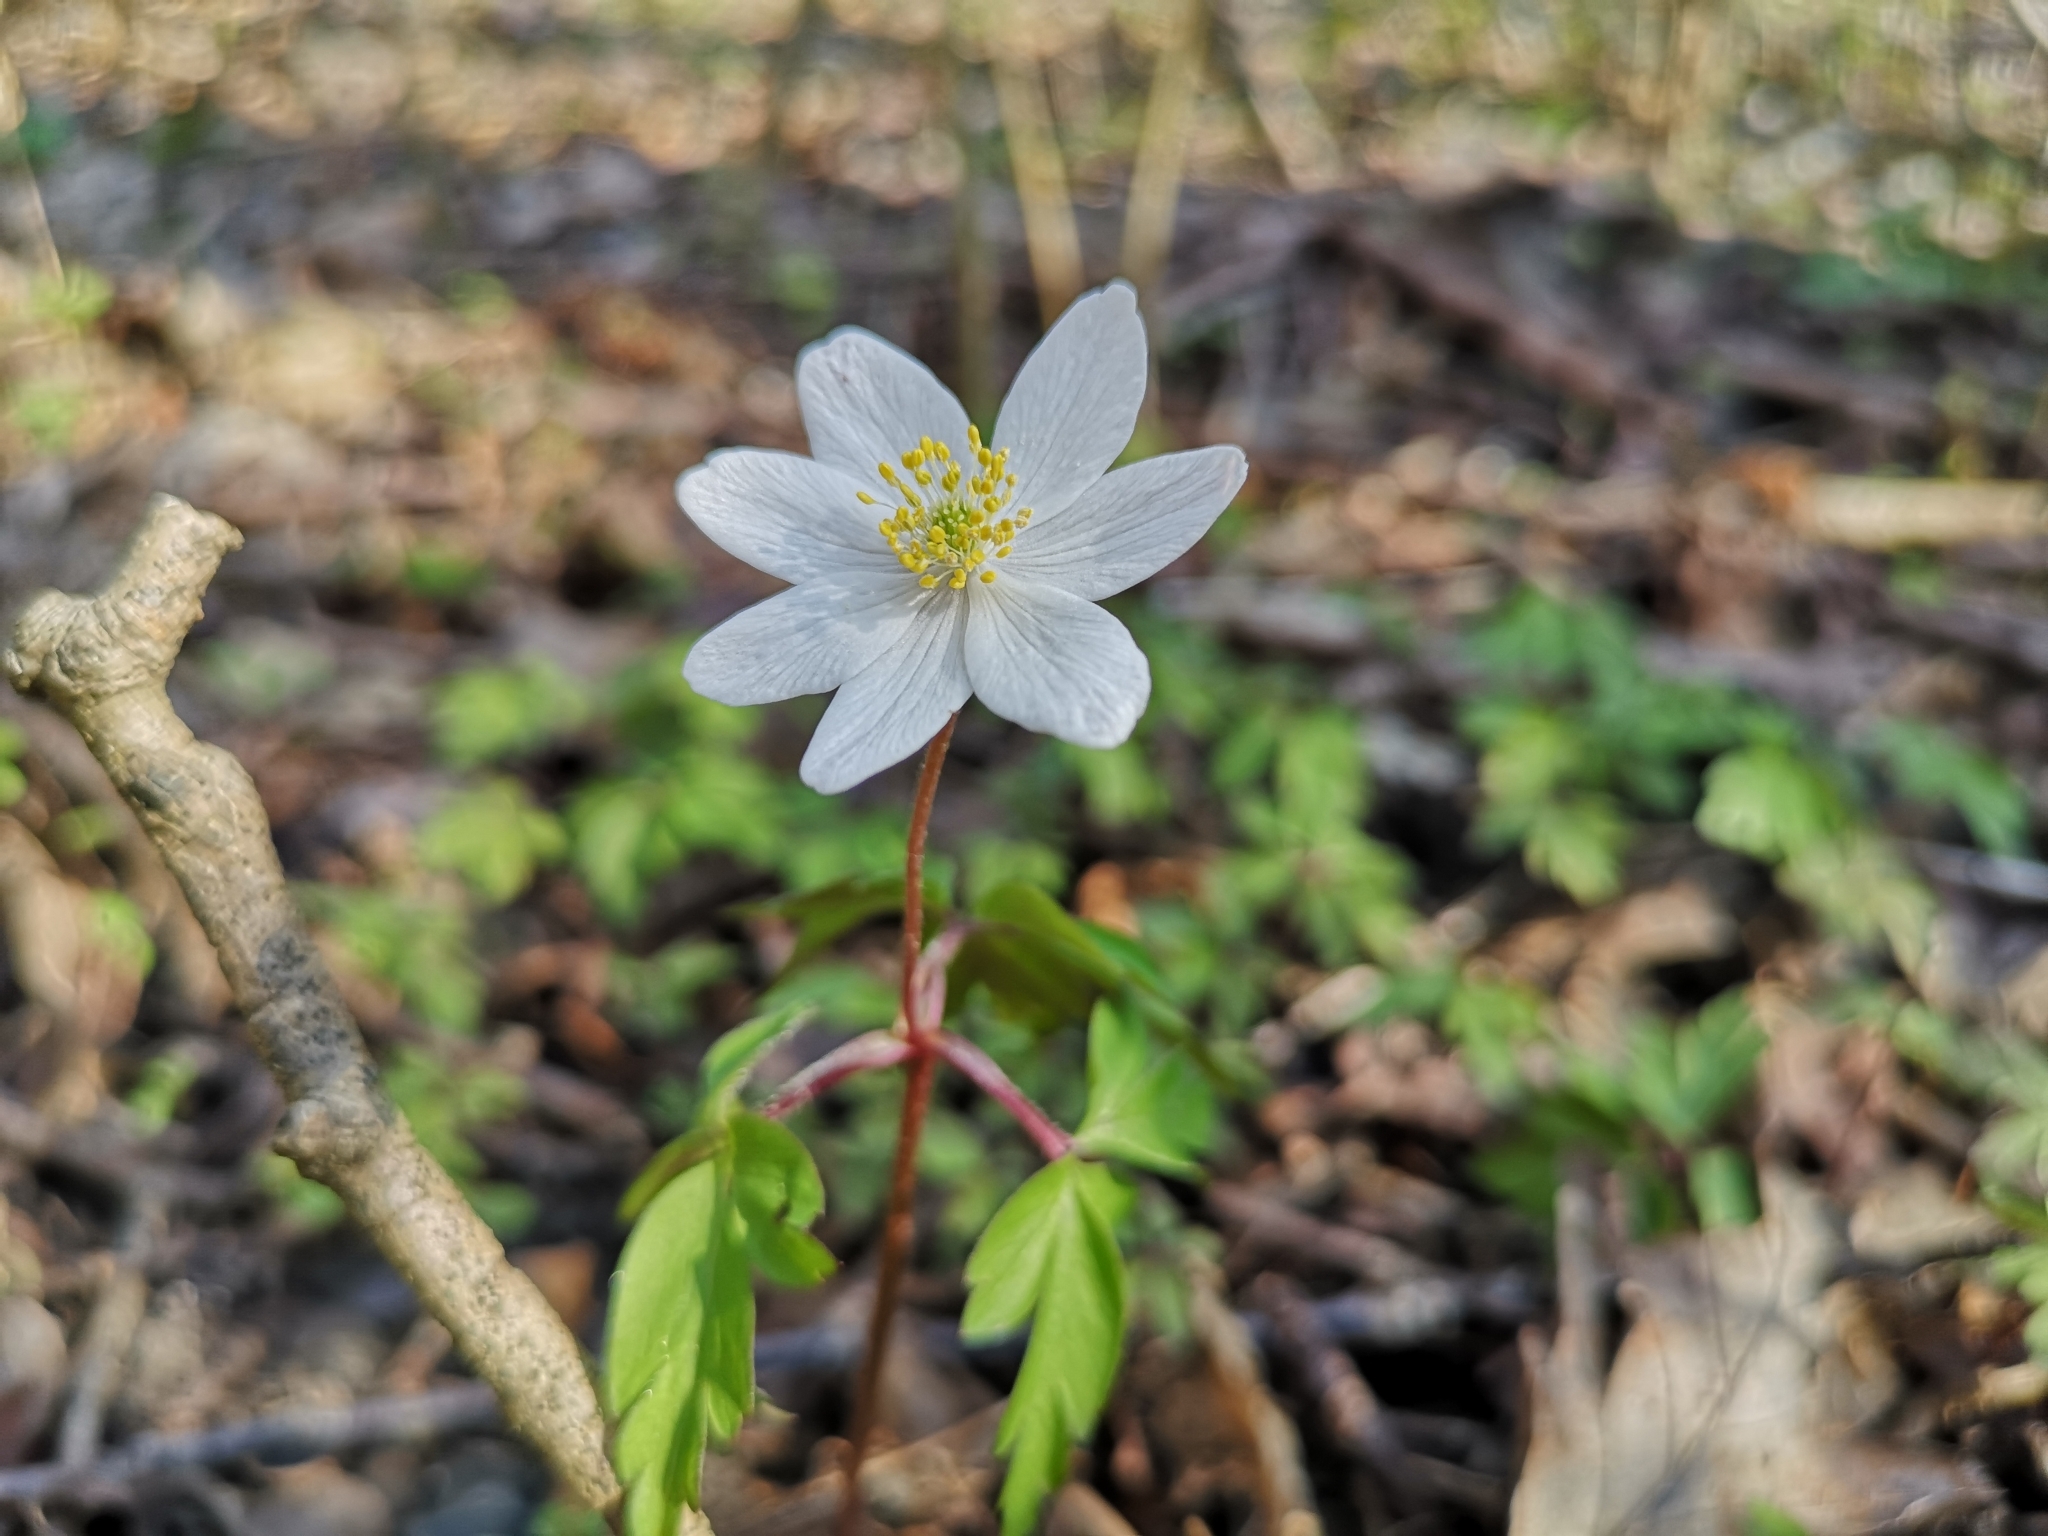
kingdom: Plantae
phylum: Tracheophyta
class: Magnoliopsida
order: Ranunculales
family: Ranunculaceae
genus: Anemone
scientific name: Anemone nemorosa
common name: Wood anemone
